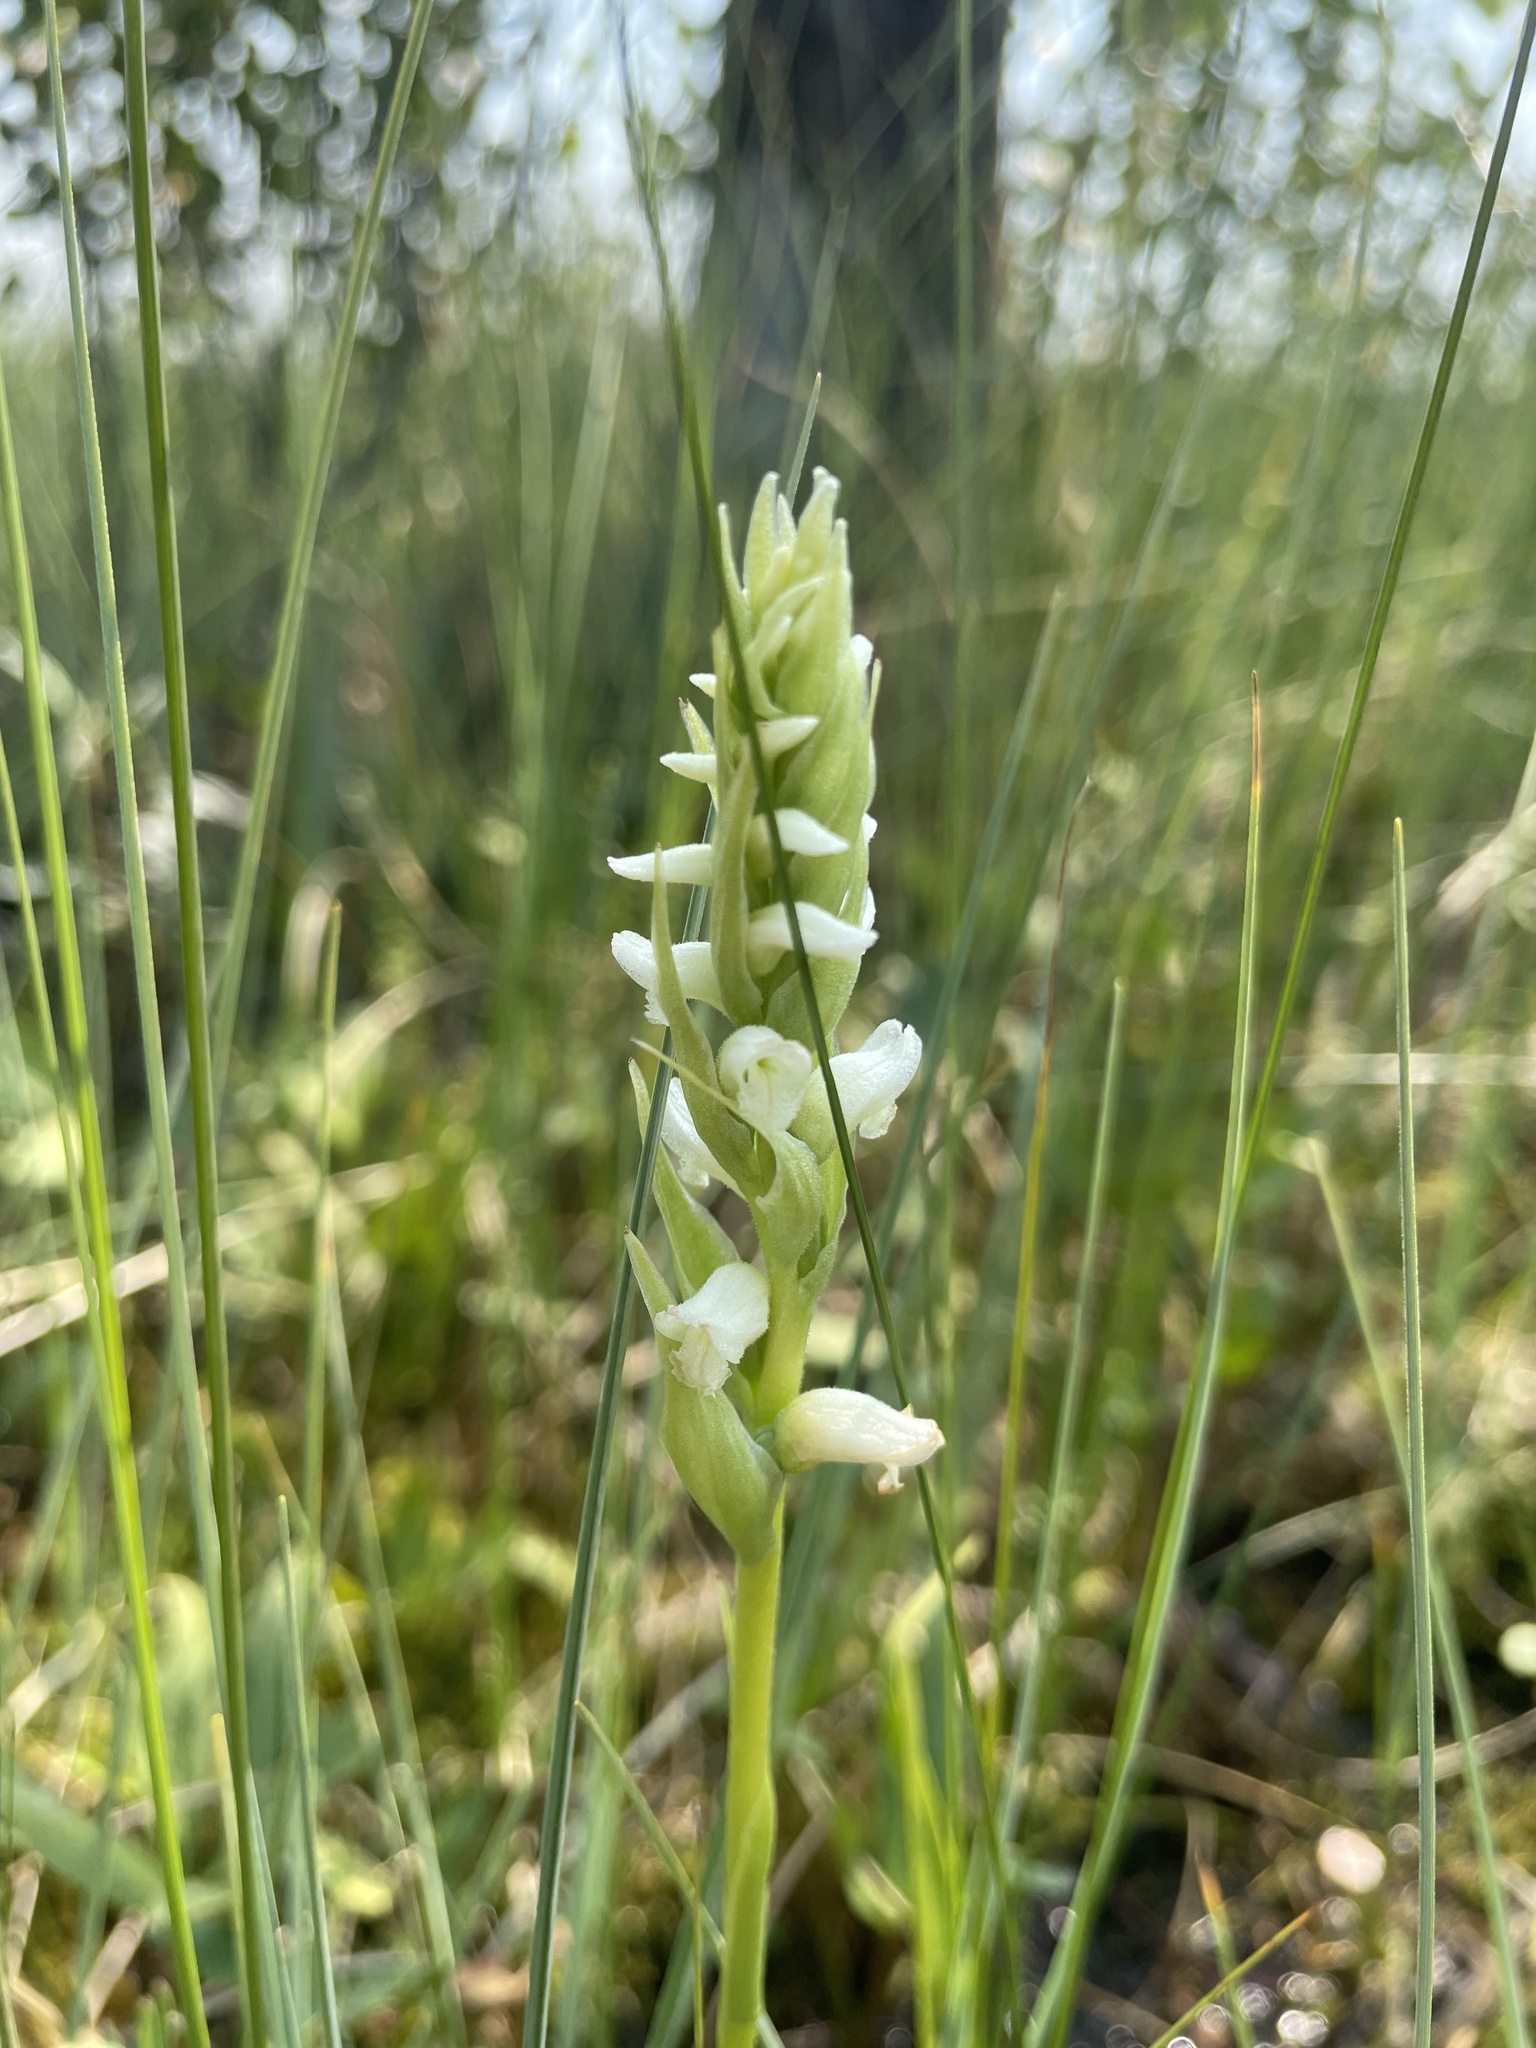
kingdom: Plantae
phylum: Tracheophyta
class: Liliopsida
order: Asparagales
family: Orchidaceae
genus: Spiranthes
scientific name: Spiranthes romanzoffiana
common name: Irish lady's-tresses
